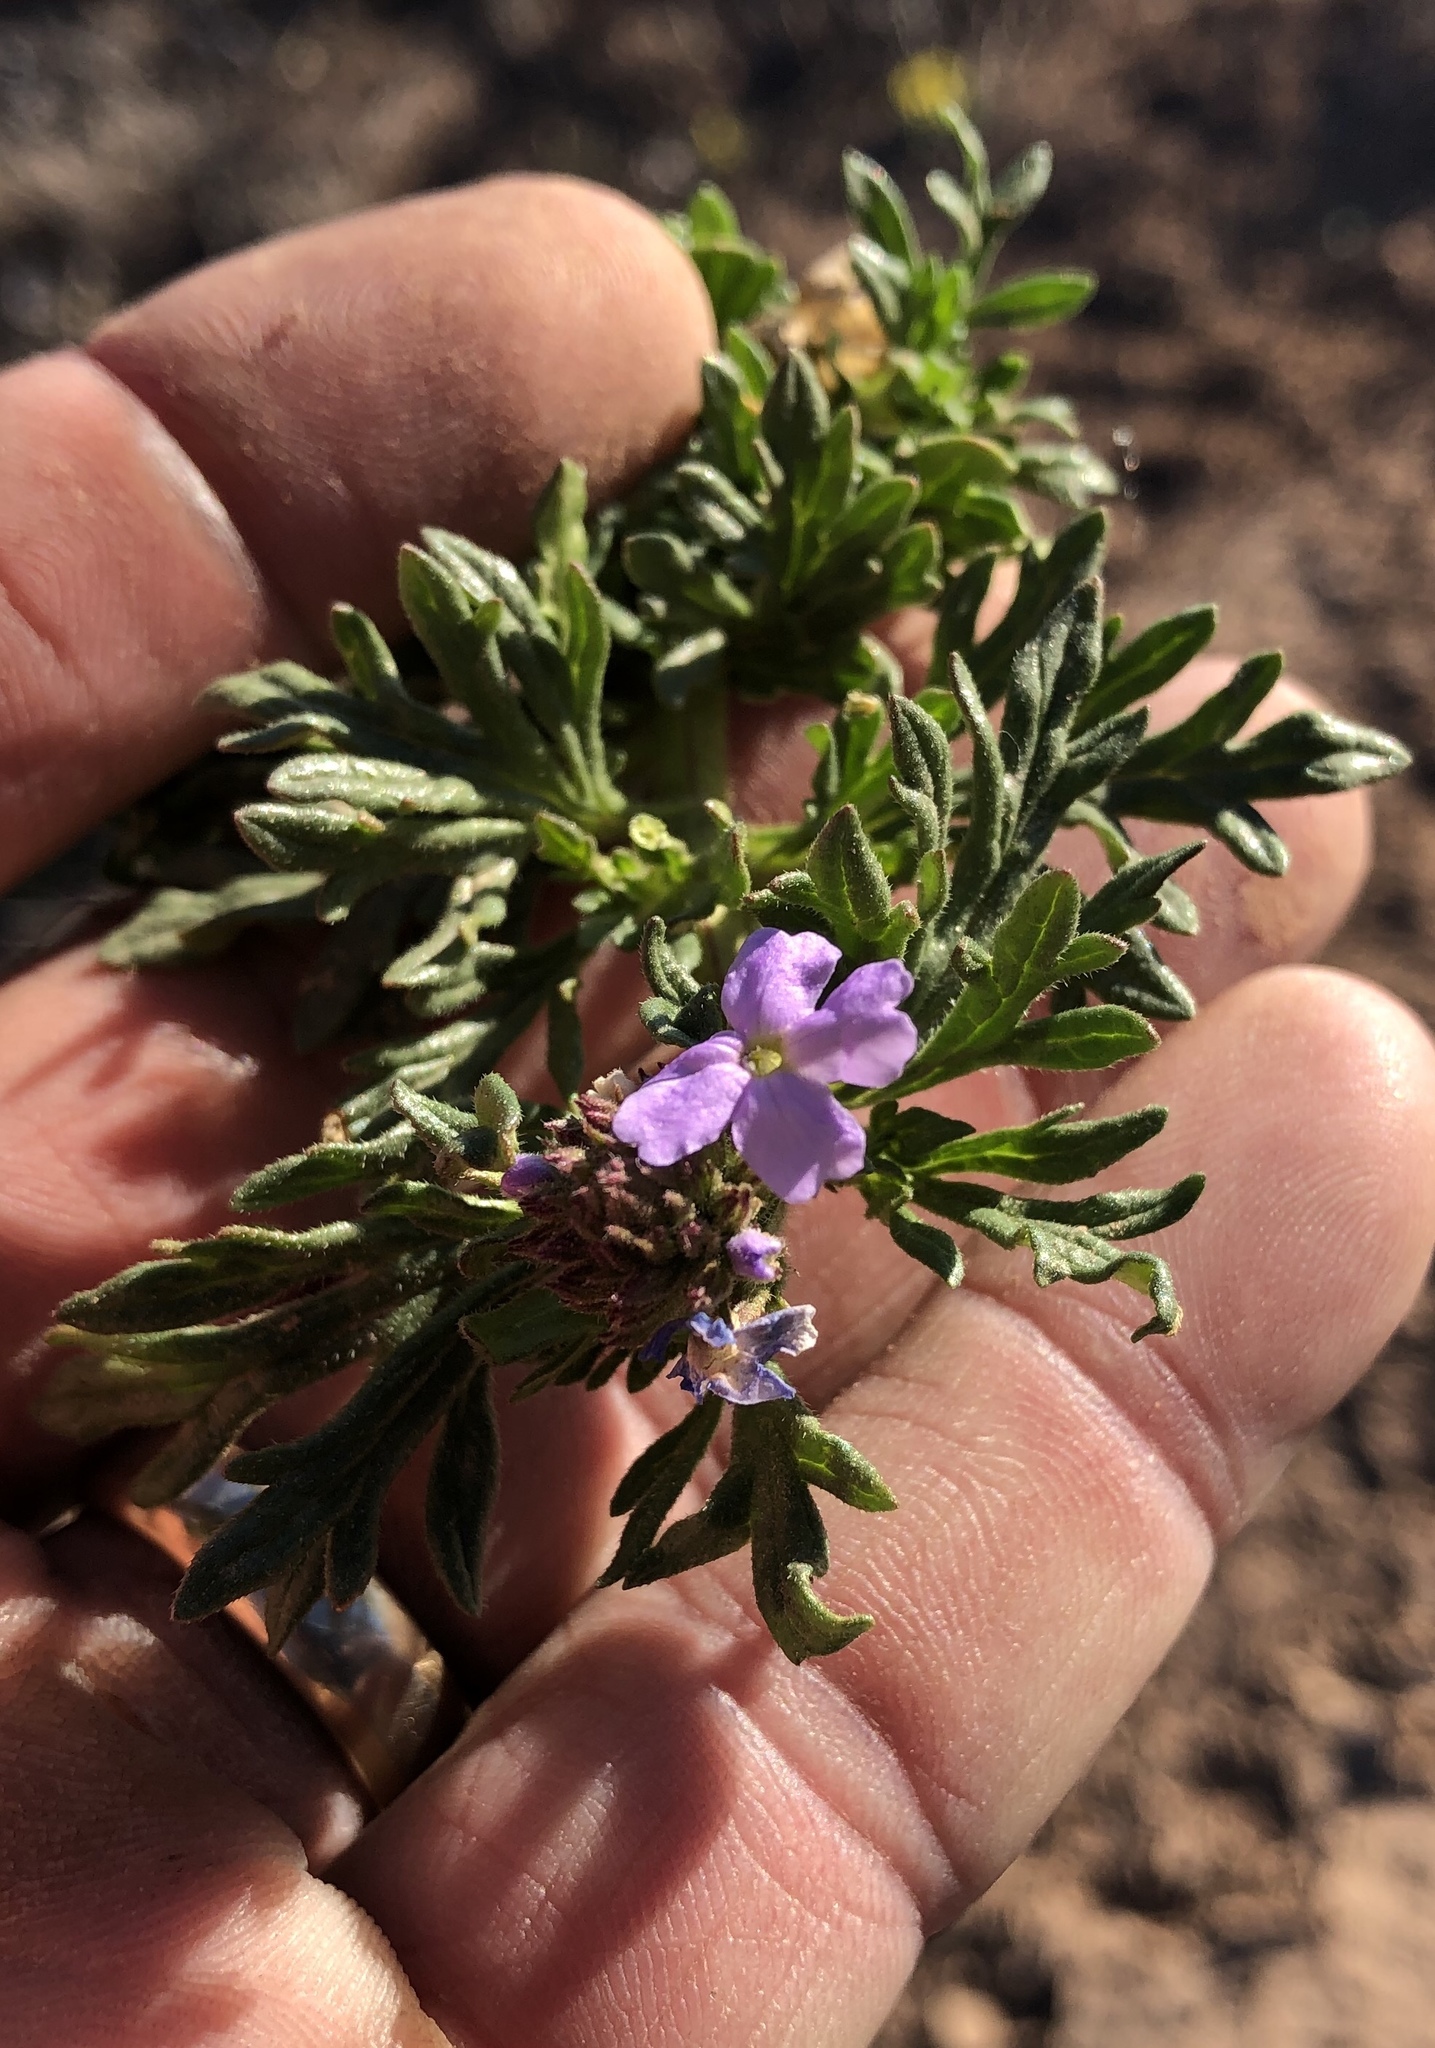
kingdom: Plantae
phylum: Tracheophyta
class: Magnoliopsida
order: Lamiales
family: Verbenaceae
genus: Verbena
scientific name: Verbena bipinnatifida
